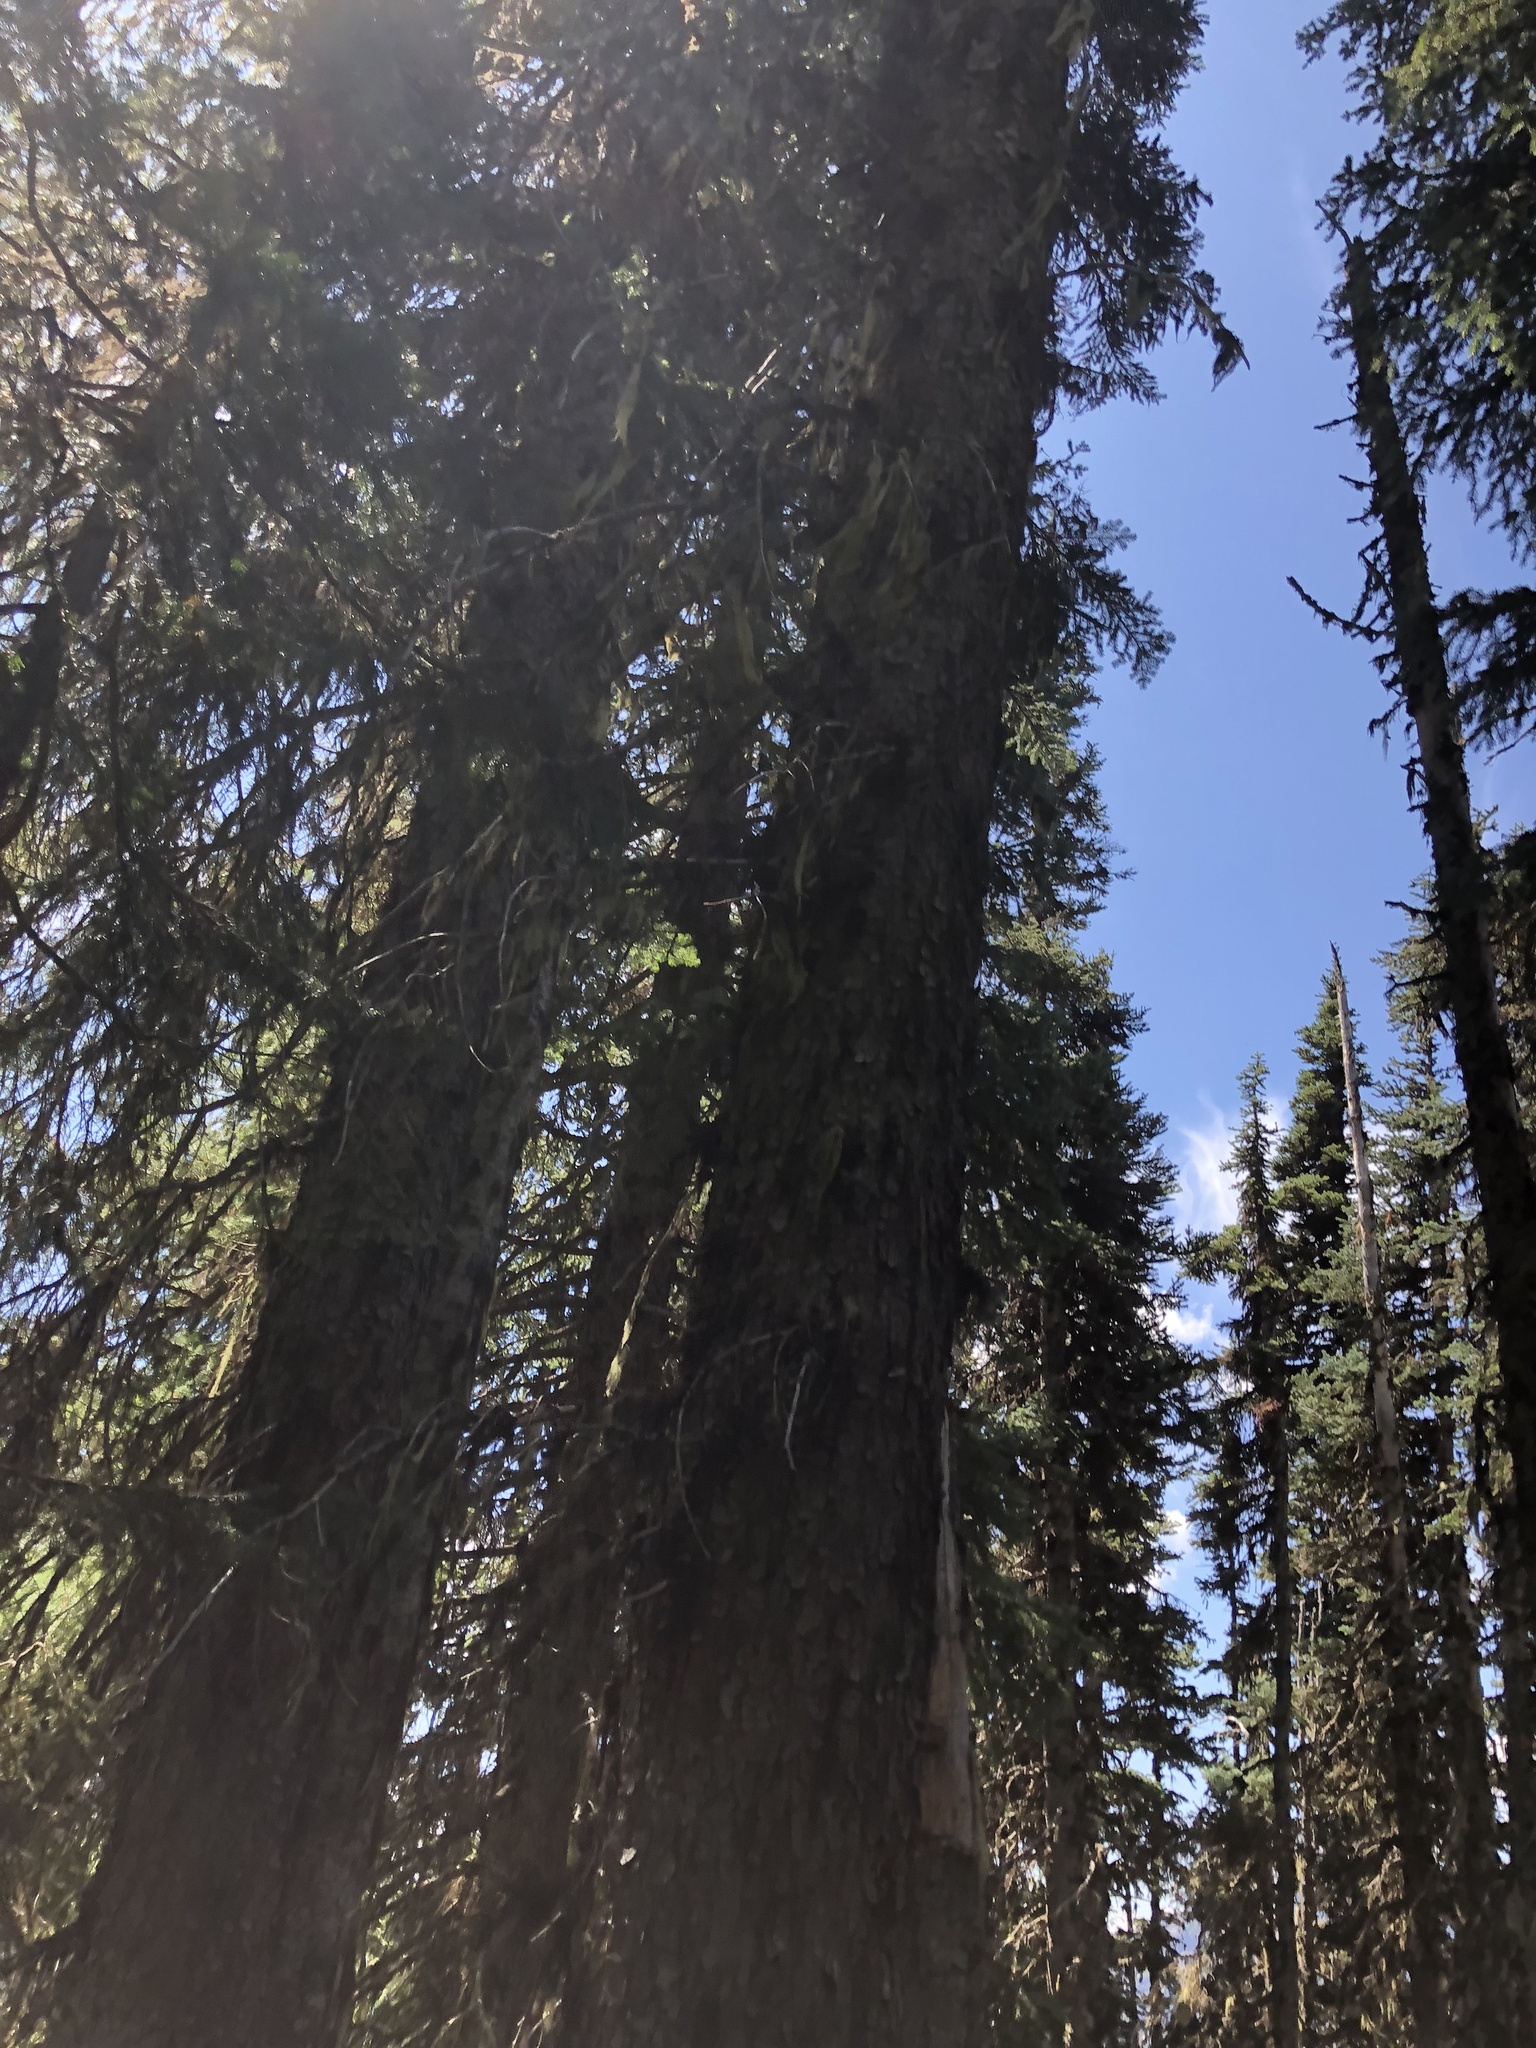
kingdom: Plantae
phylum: Tracheophyta
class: Pinopsida
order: Pinales
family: Pinaceae
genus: Picea
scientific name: Picea engelmannii
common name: Engelmann spruce
